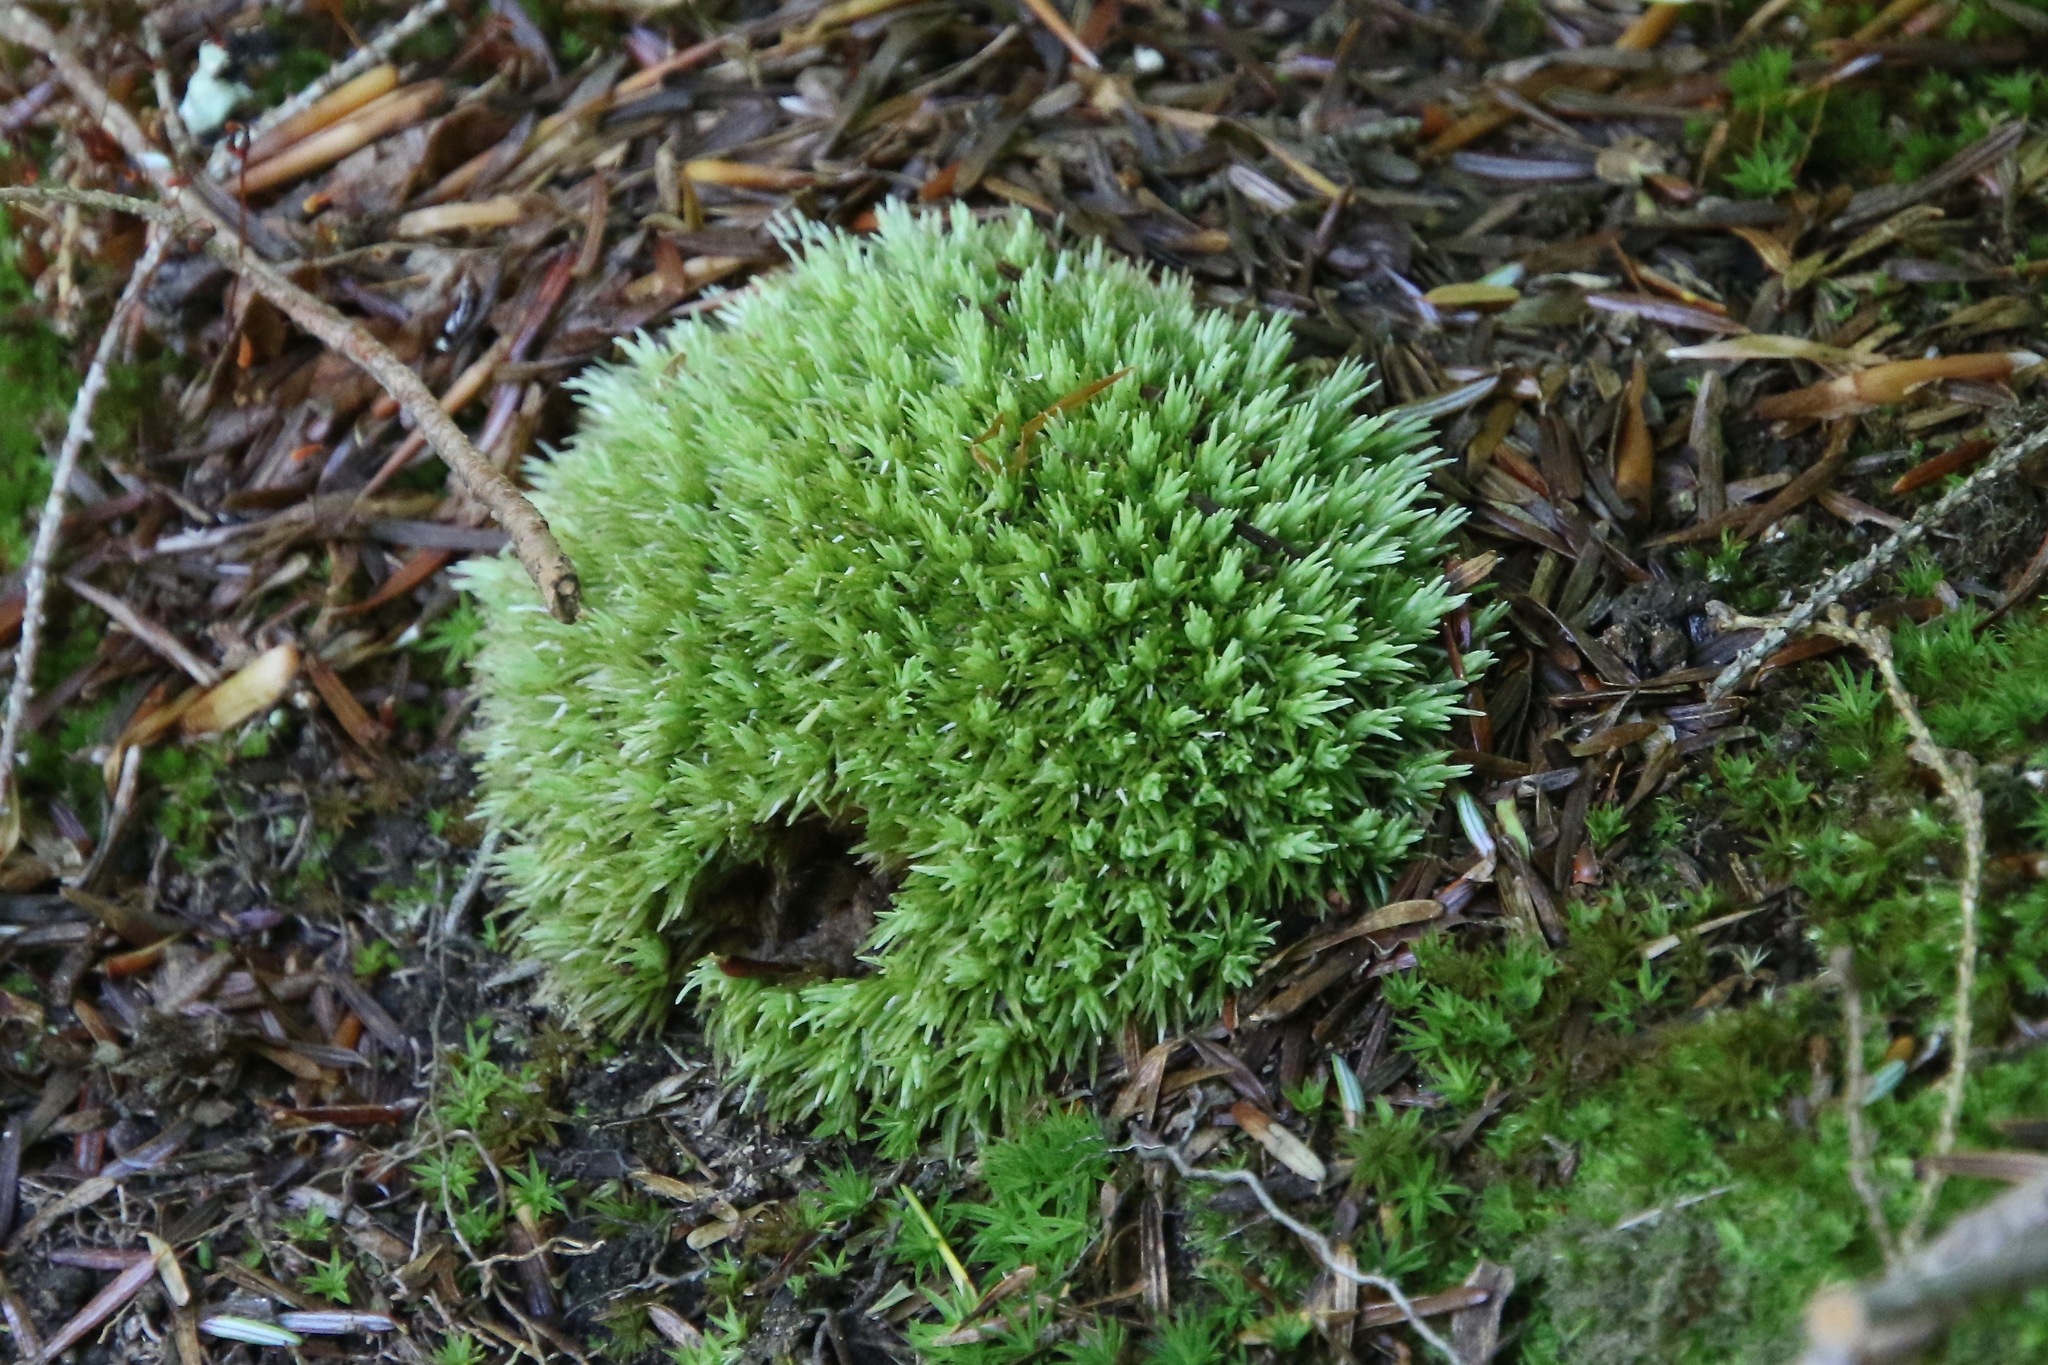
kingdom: Plantae
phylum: Bryophyta
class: Bryopsida
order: Dicranales
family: Leucobryaceae
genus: Leucobryum
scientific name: Leucobryum glaucum
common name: Large white-moss
